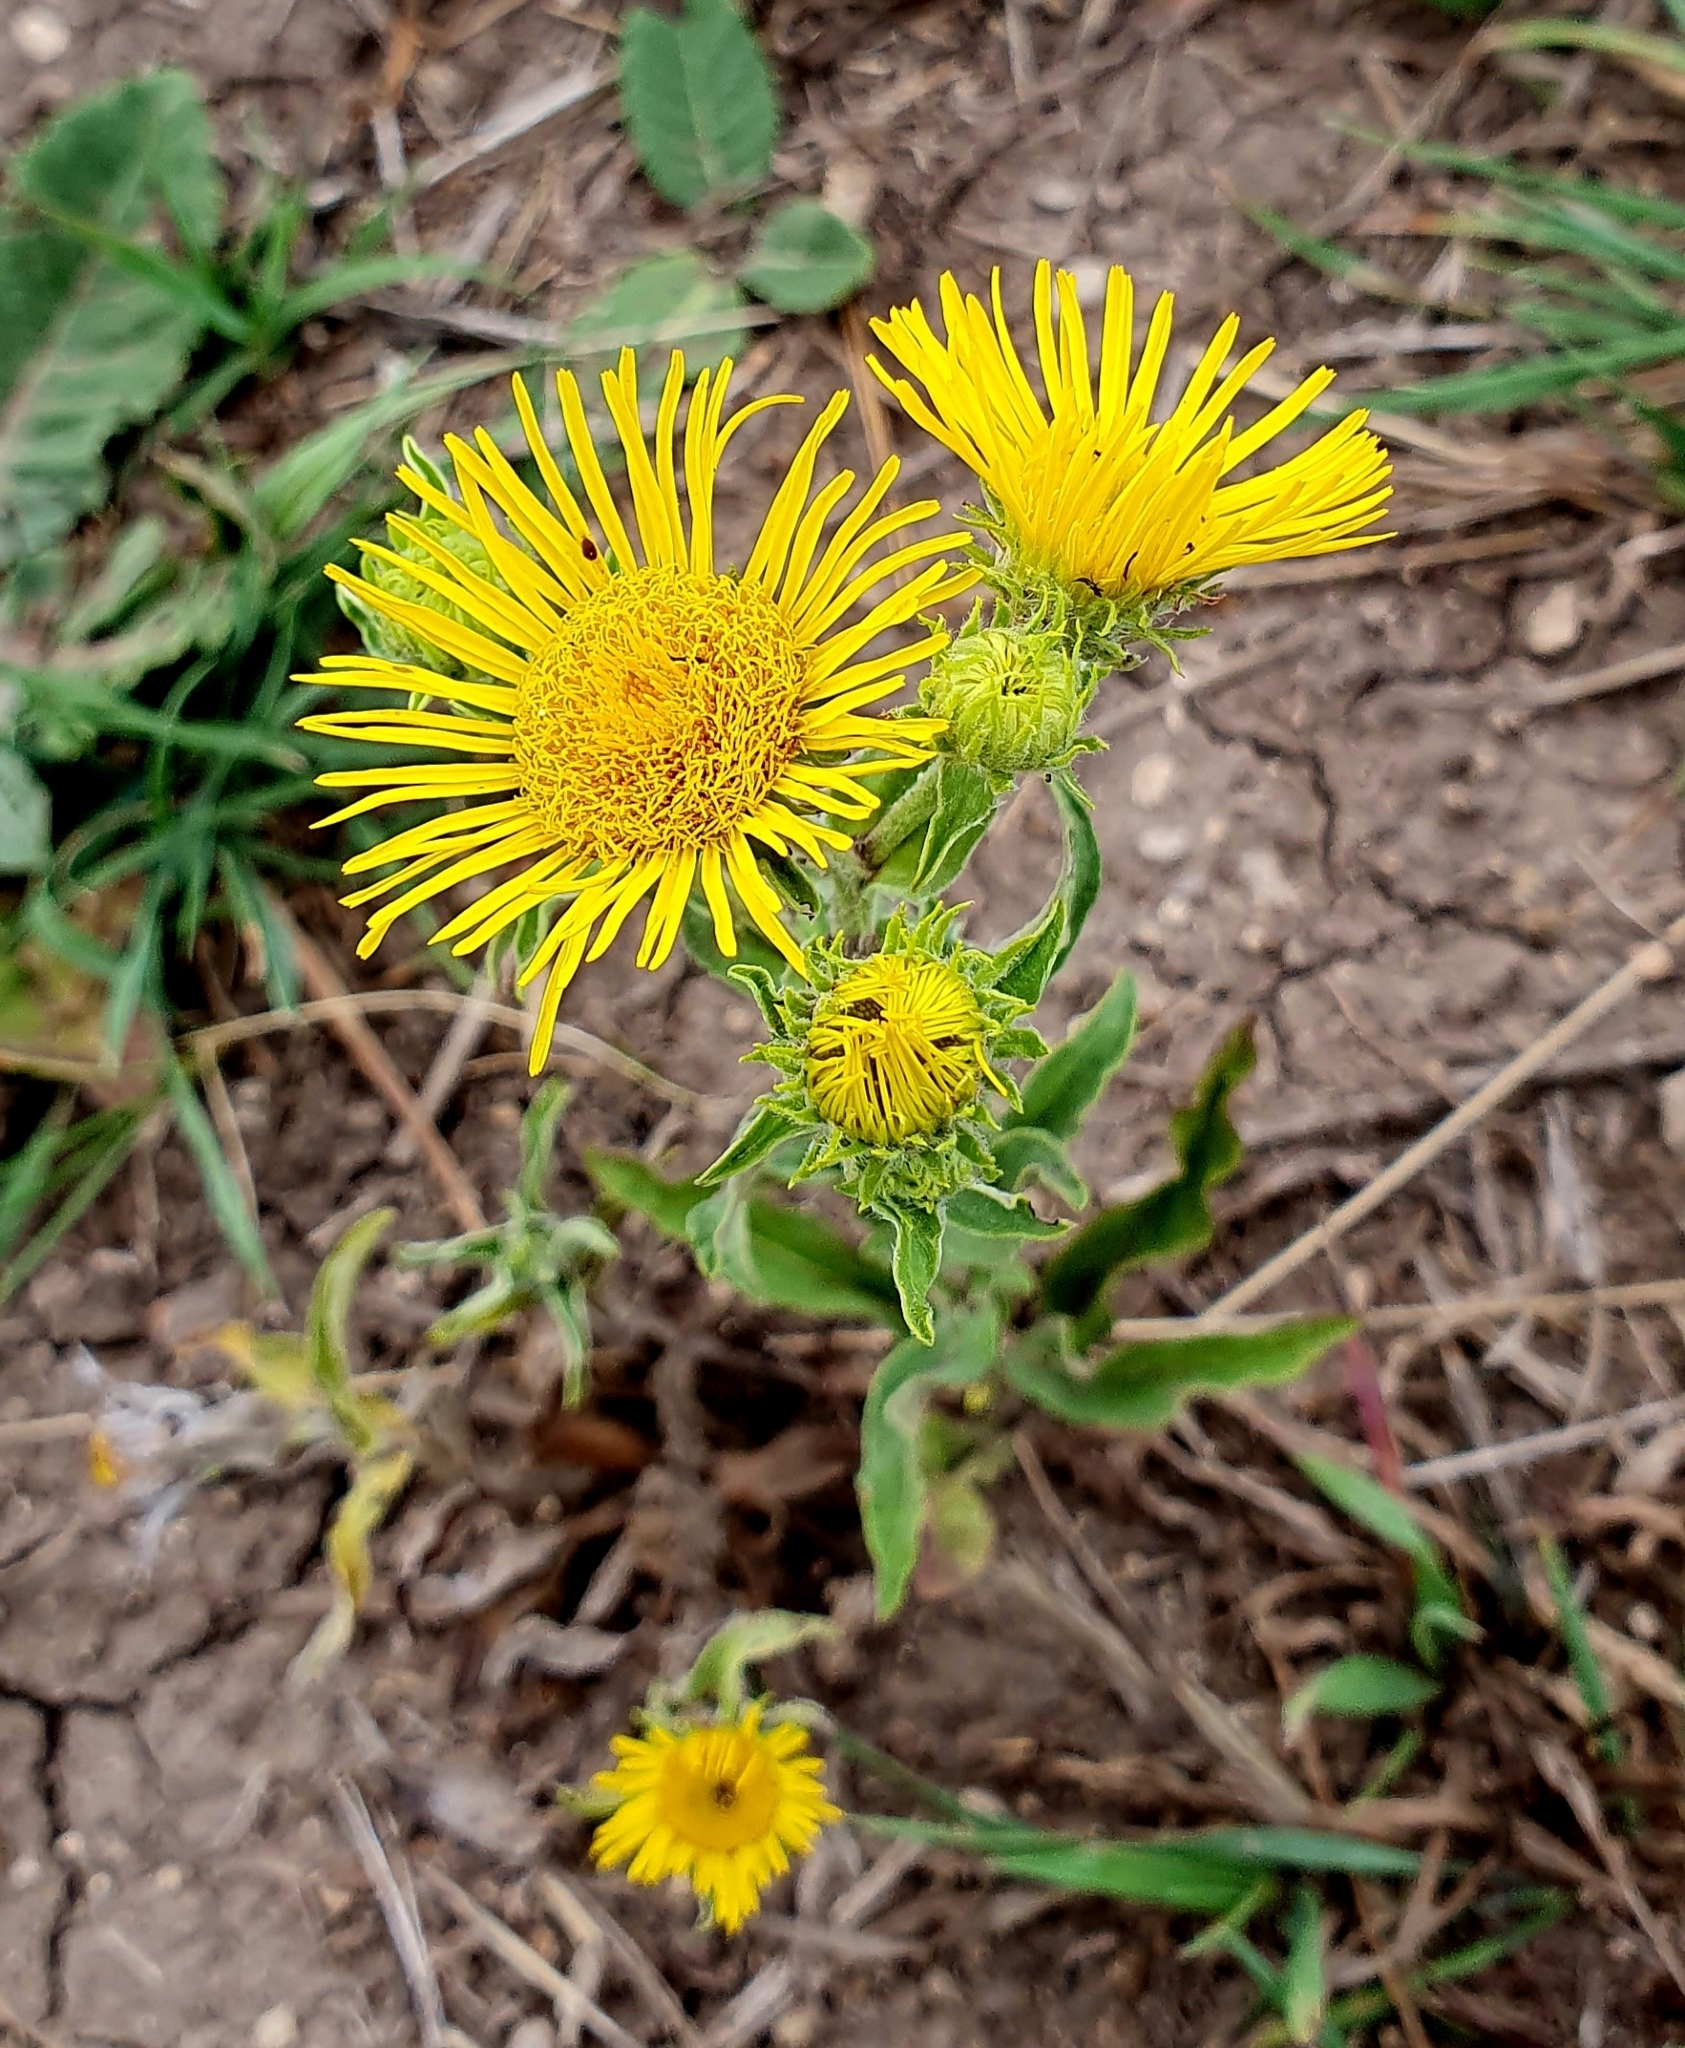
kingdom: Plantae
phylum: Tracheophyta
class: Magnoliopsida
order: Asterales
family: Asteraceae
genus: Pentanema
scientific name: Pentanema britannicum
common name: British elecampane
